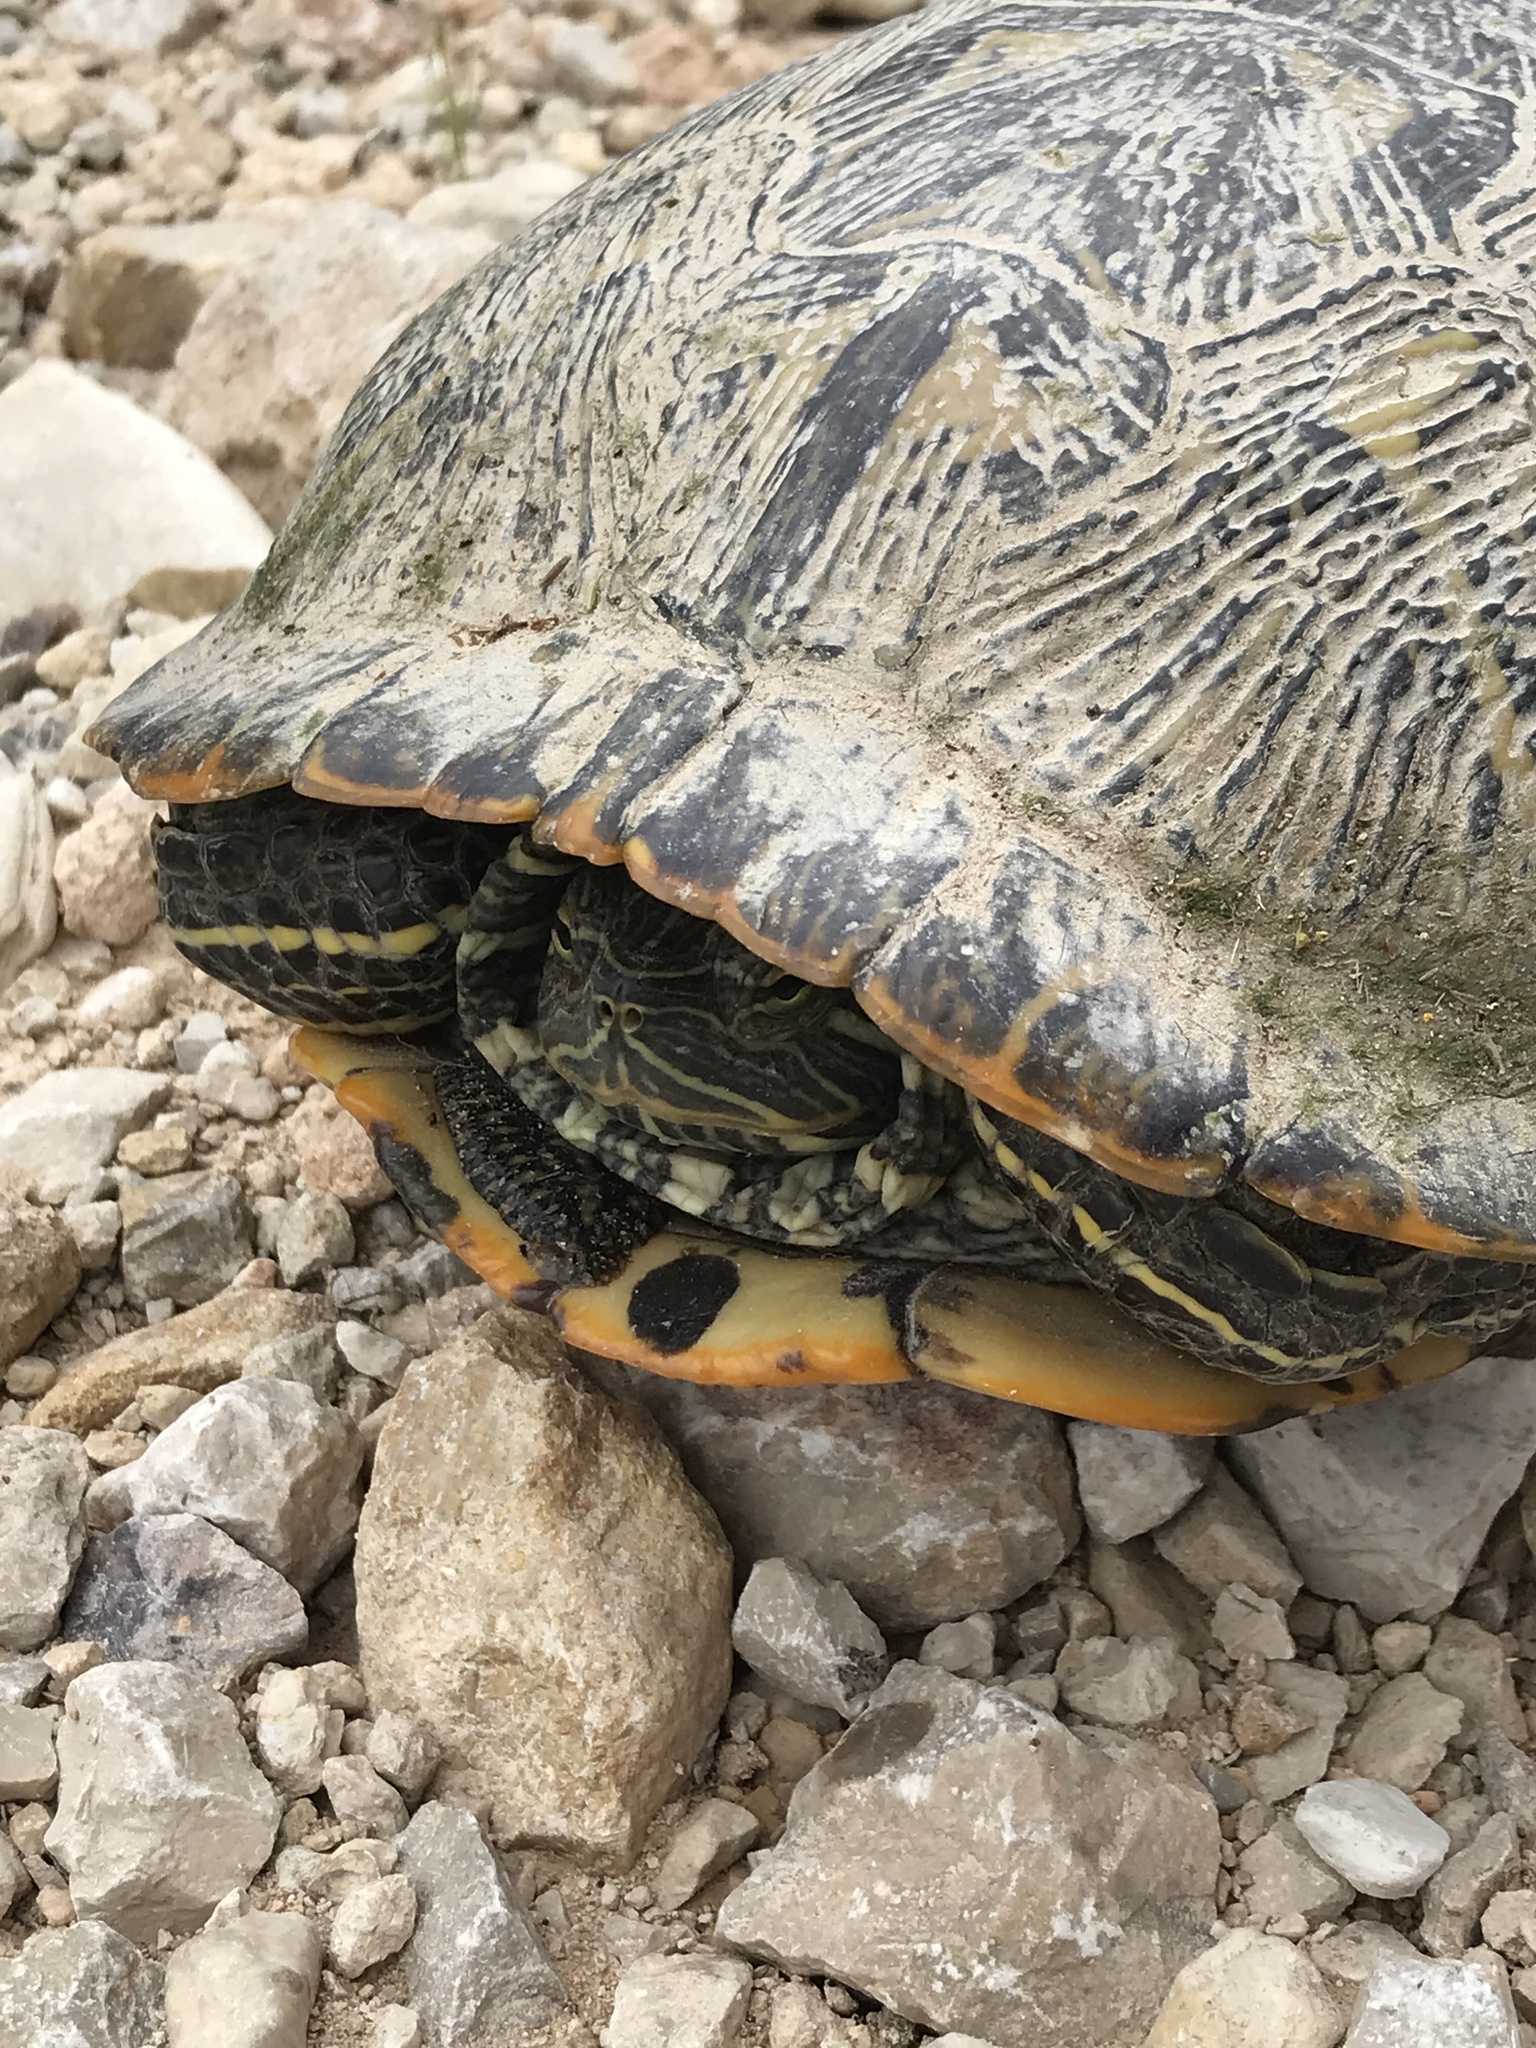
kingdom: Animalia
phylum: Chordata
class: Testudines
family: Emydidae
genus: Trachemys
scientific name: Trachemys scripta
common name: Slider
